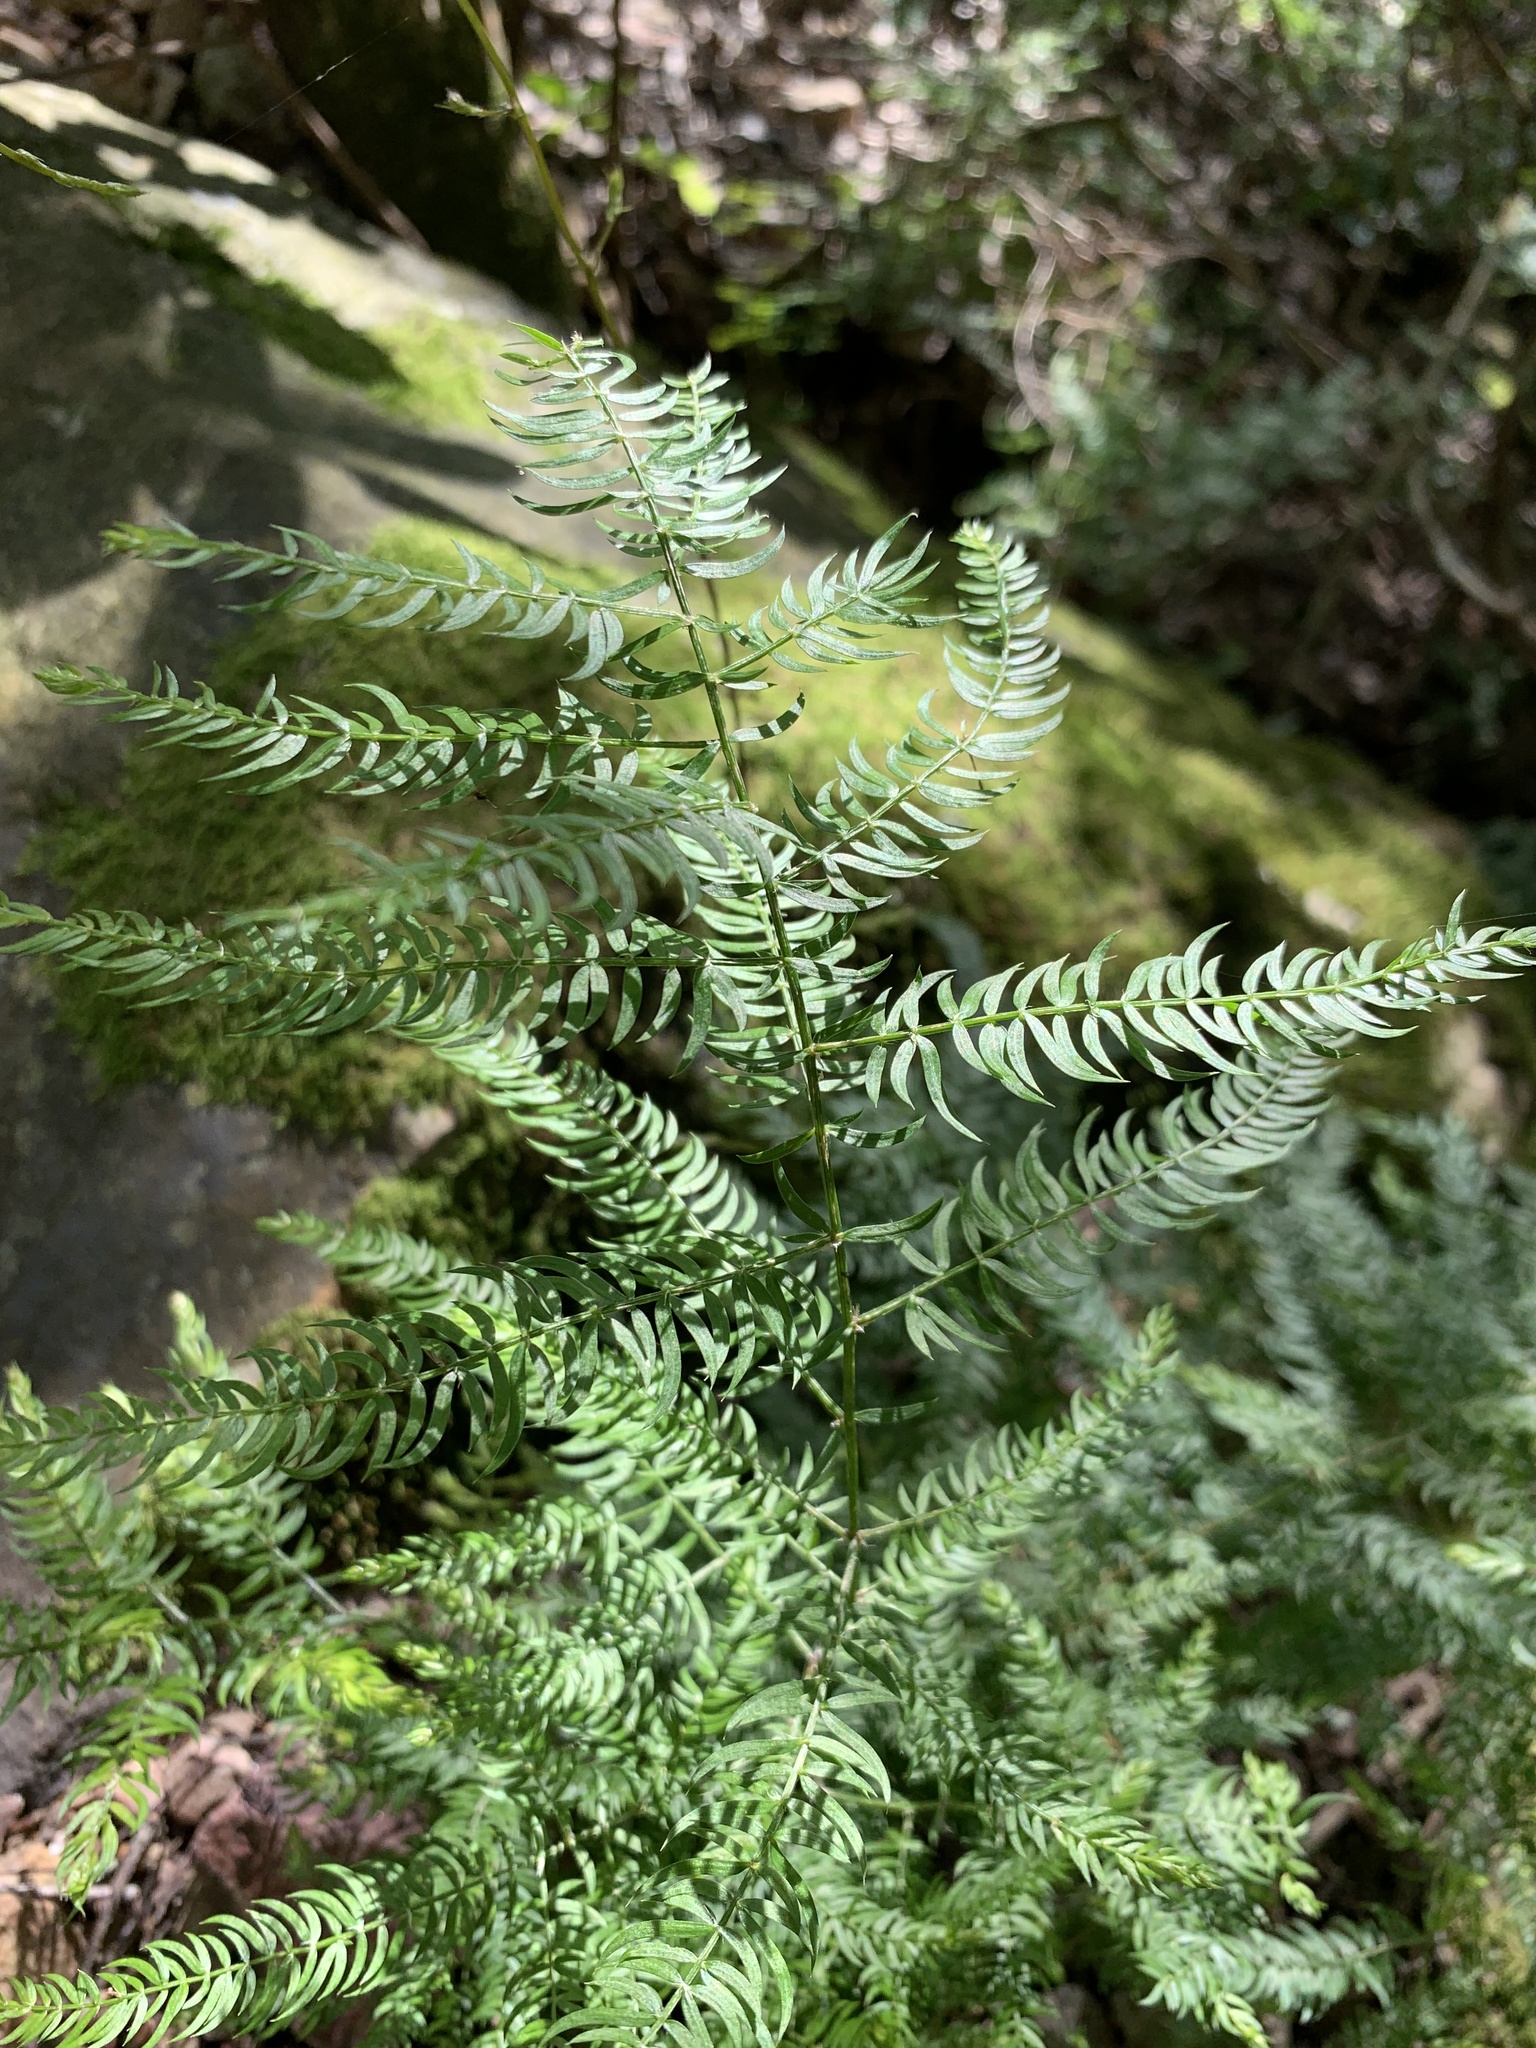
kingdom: Plantae
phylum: Tracheophyta
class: Liliopsida
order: Asparagales
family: Asparagaceae
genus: Asparagus
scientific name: Asparagus scandens
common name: Asparagus-fern
